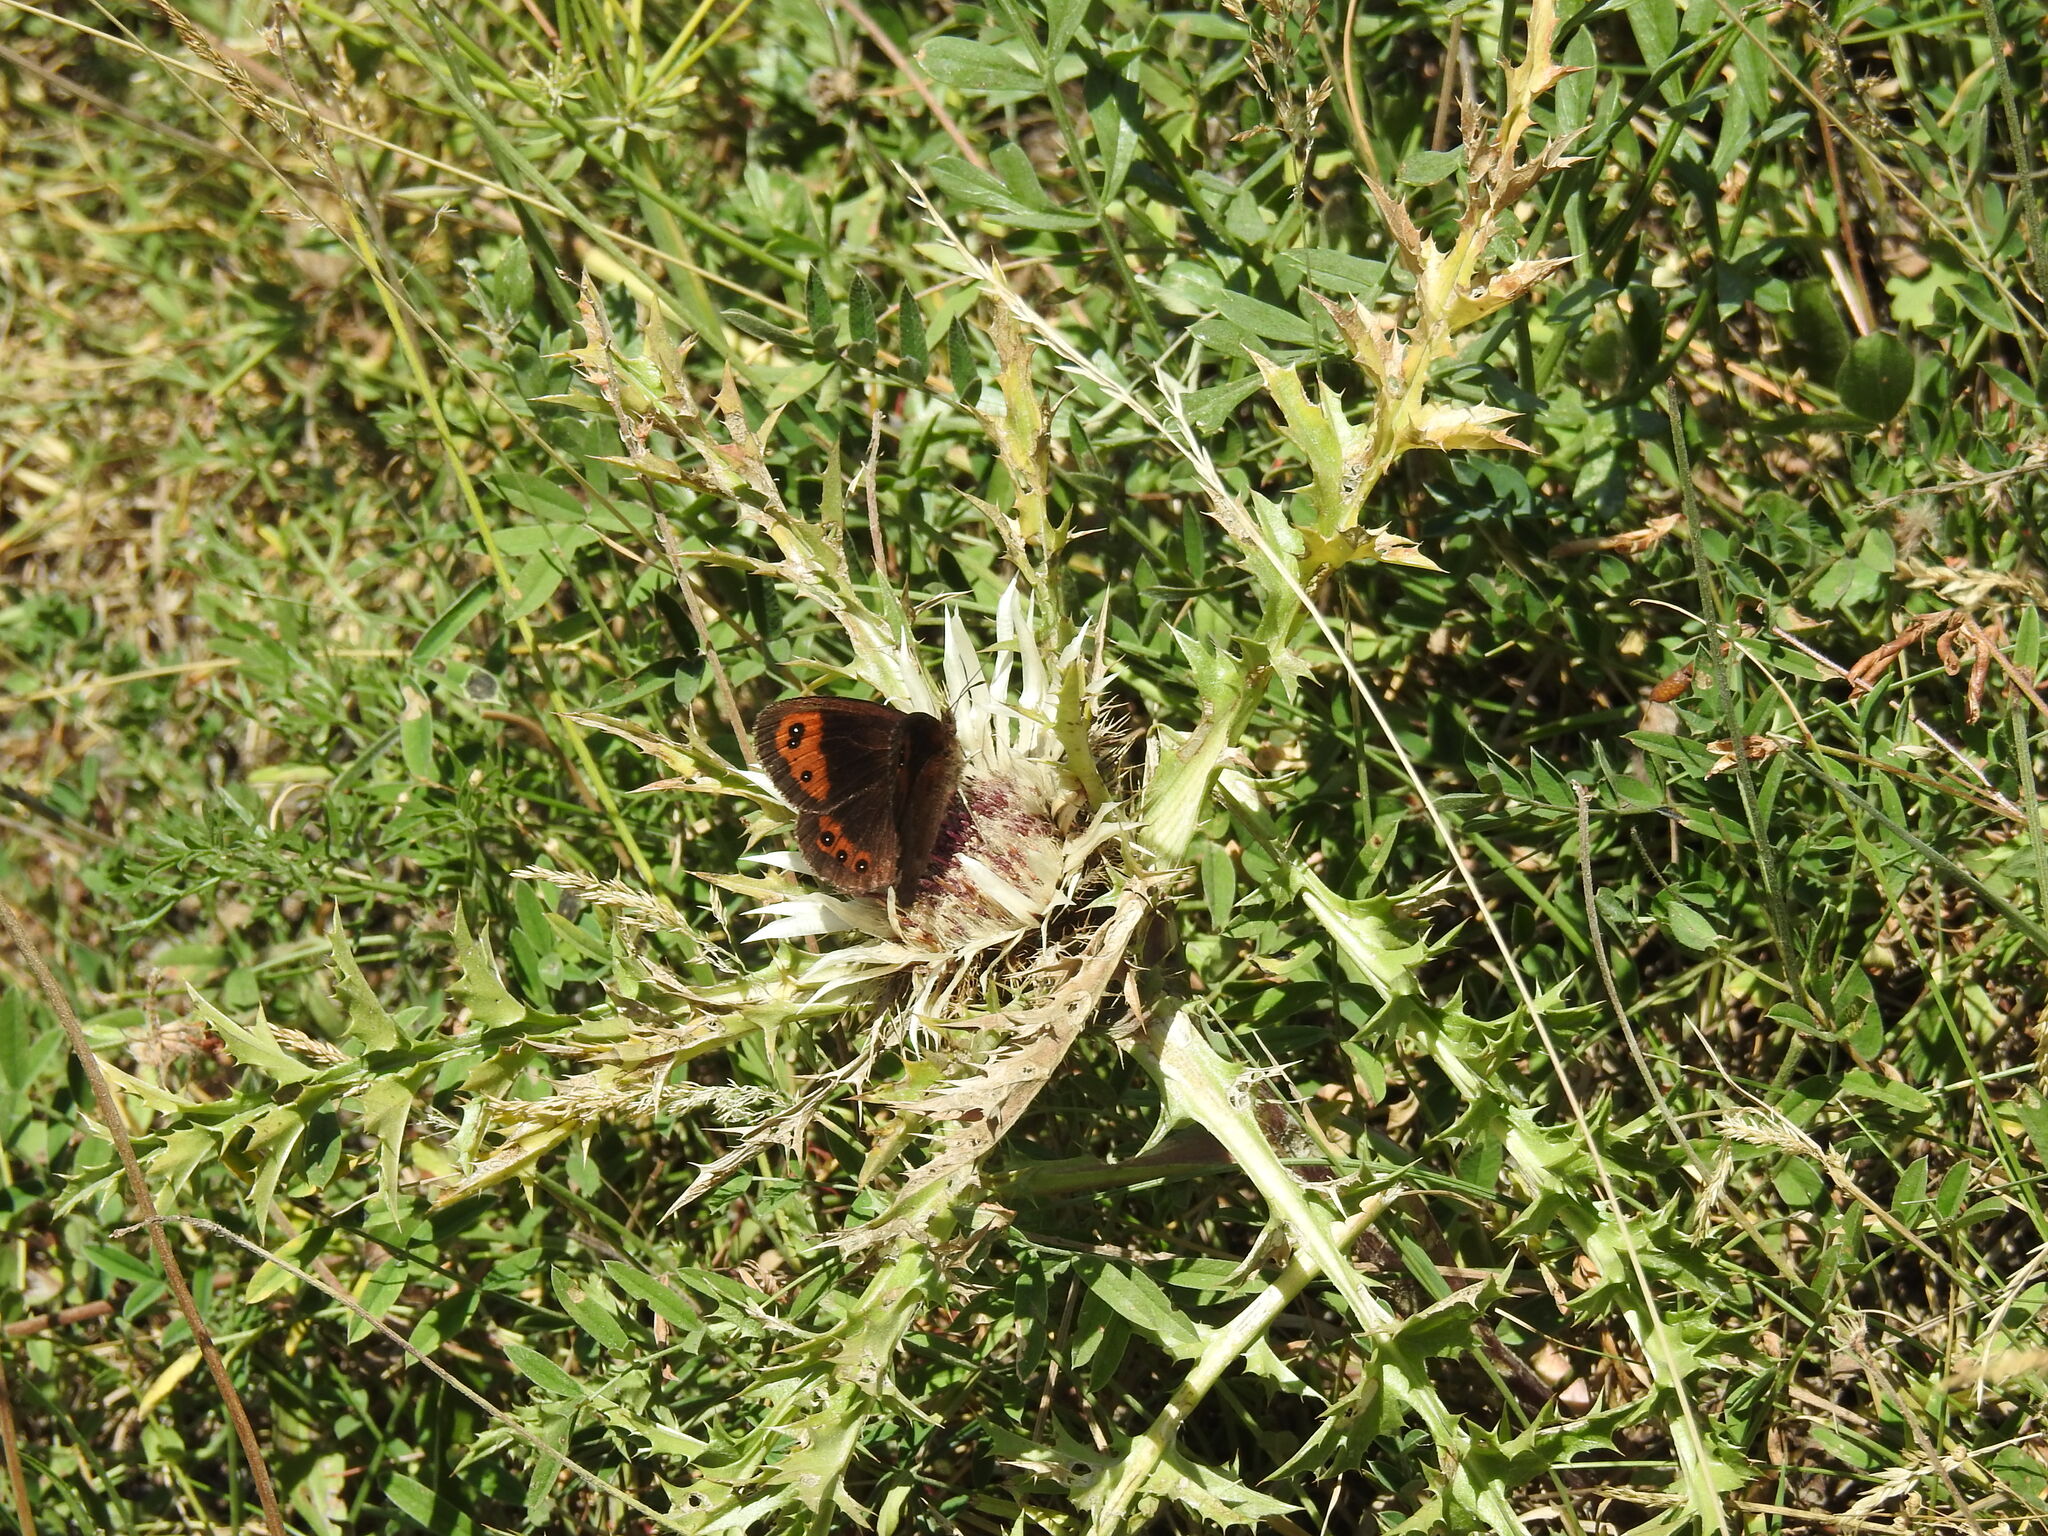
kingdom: Animalia
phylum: Arthropoda
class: Insecta
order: Lepidoptera
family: Nymphalidae
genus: Erebia
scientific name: Erebia neoridas
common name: Autumn ringlet
